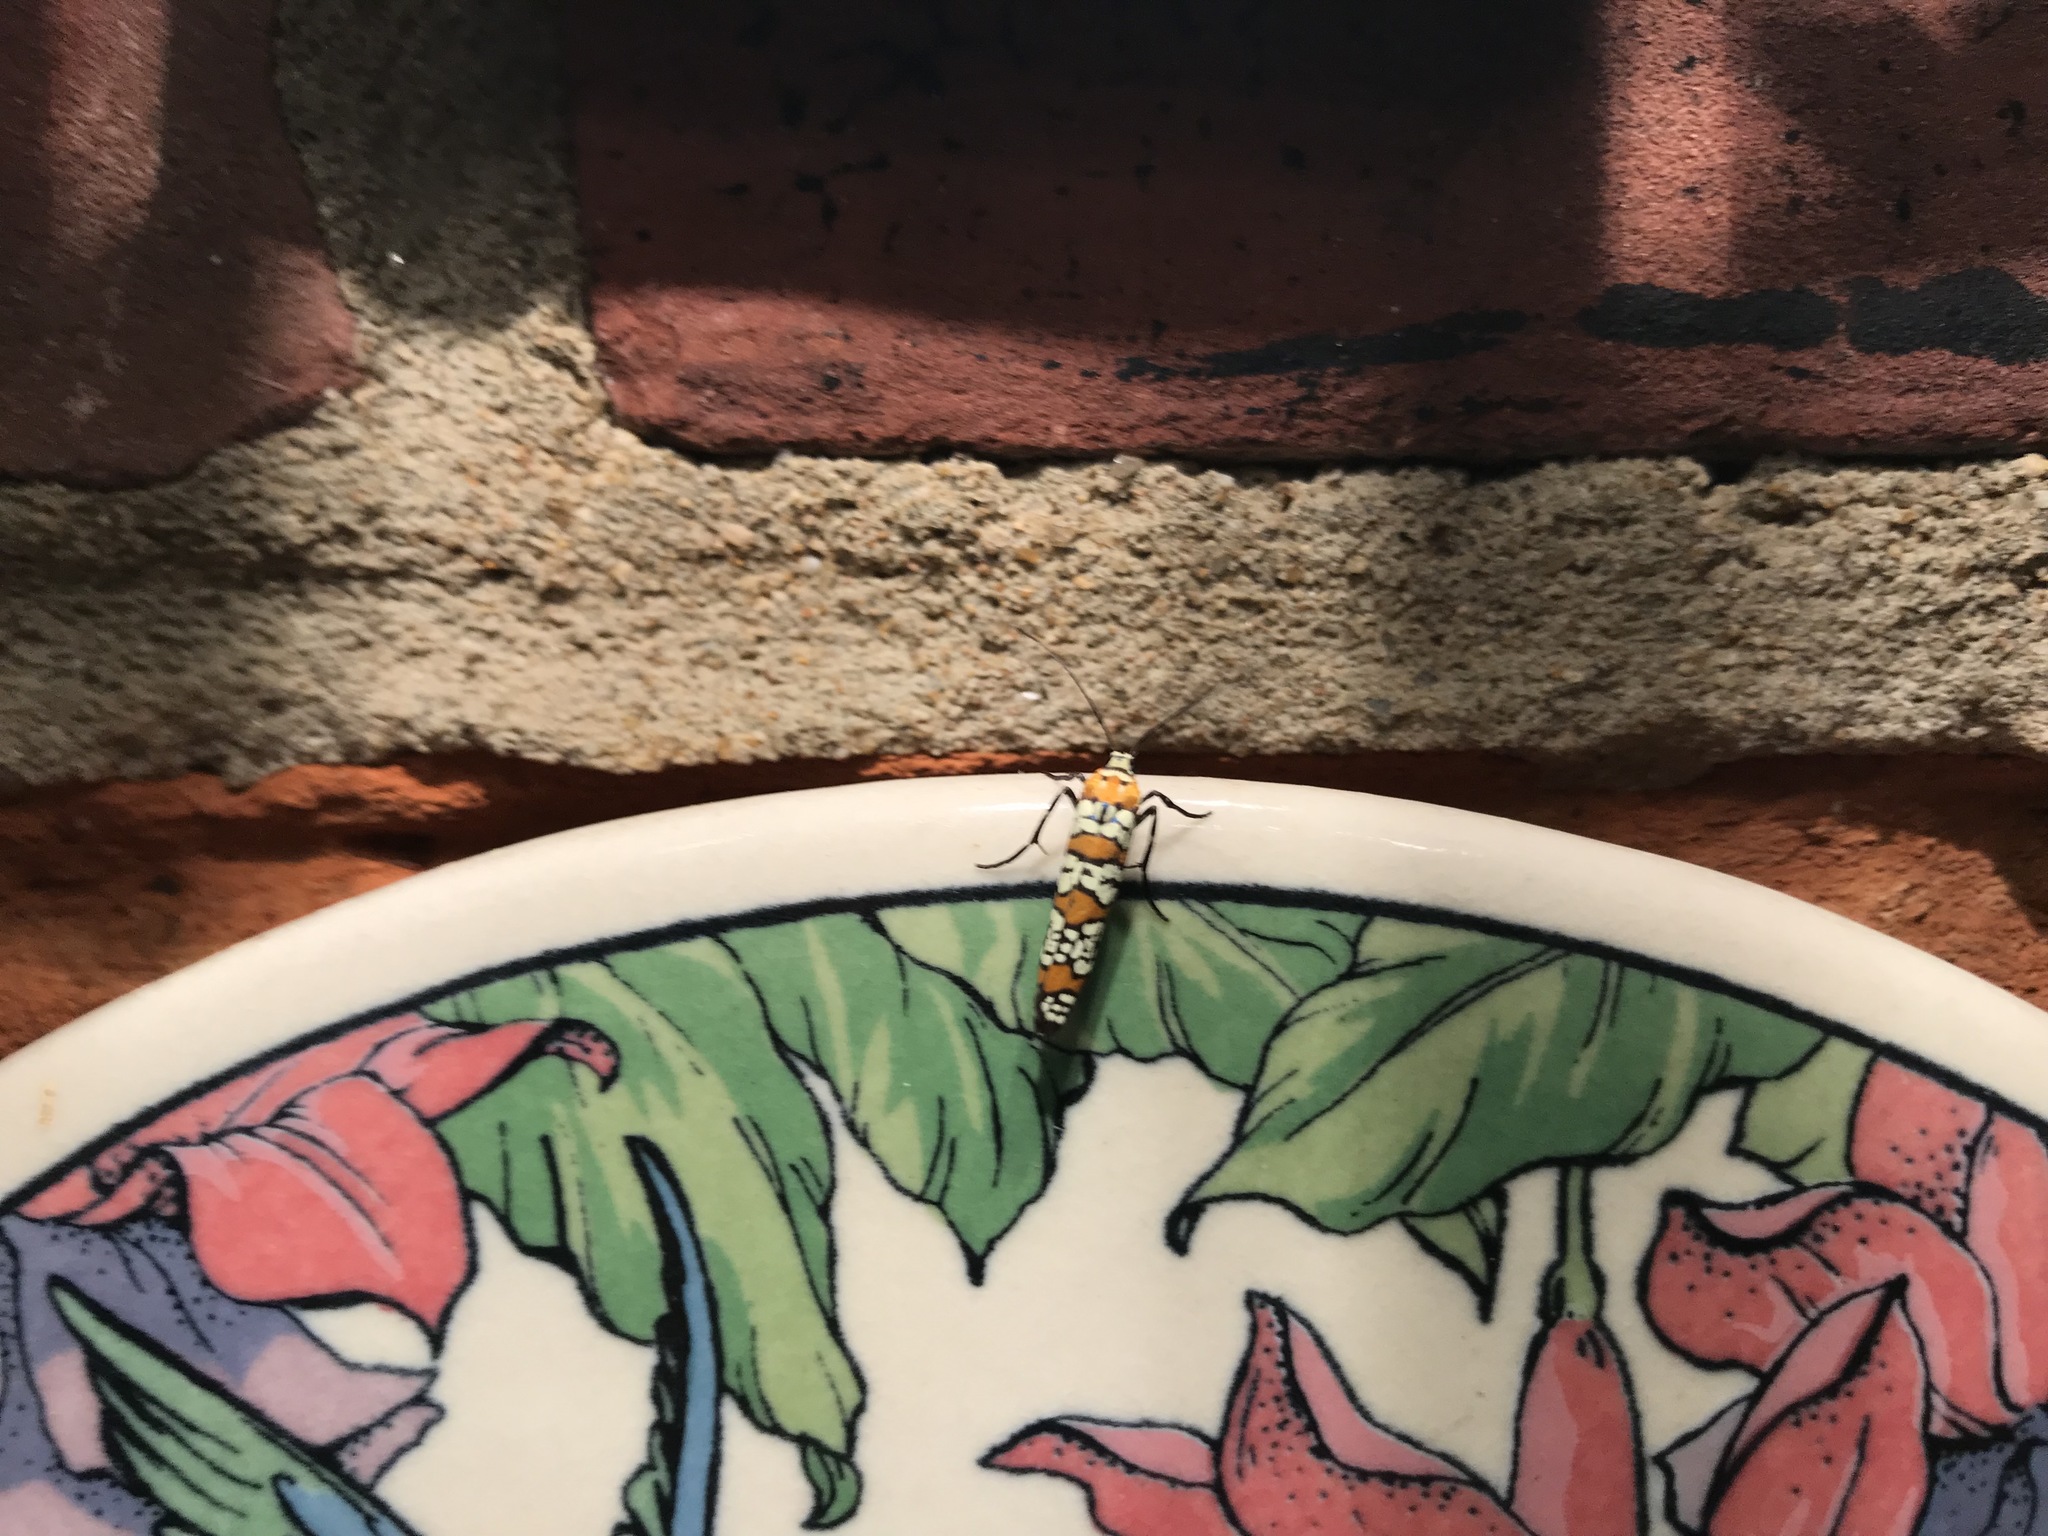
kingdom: Animalia
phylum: Arthropoda
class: Insecta
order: Lepidoptera
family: Attevidae
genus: Atteva
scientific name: Atteva punctella
